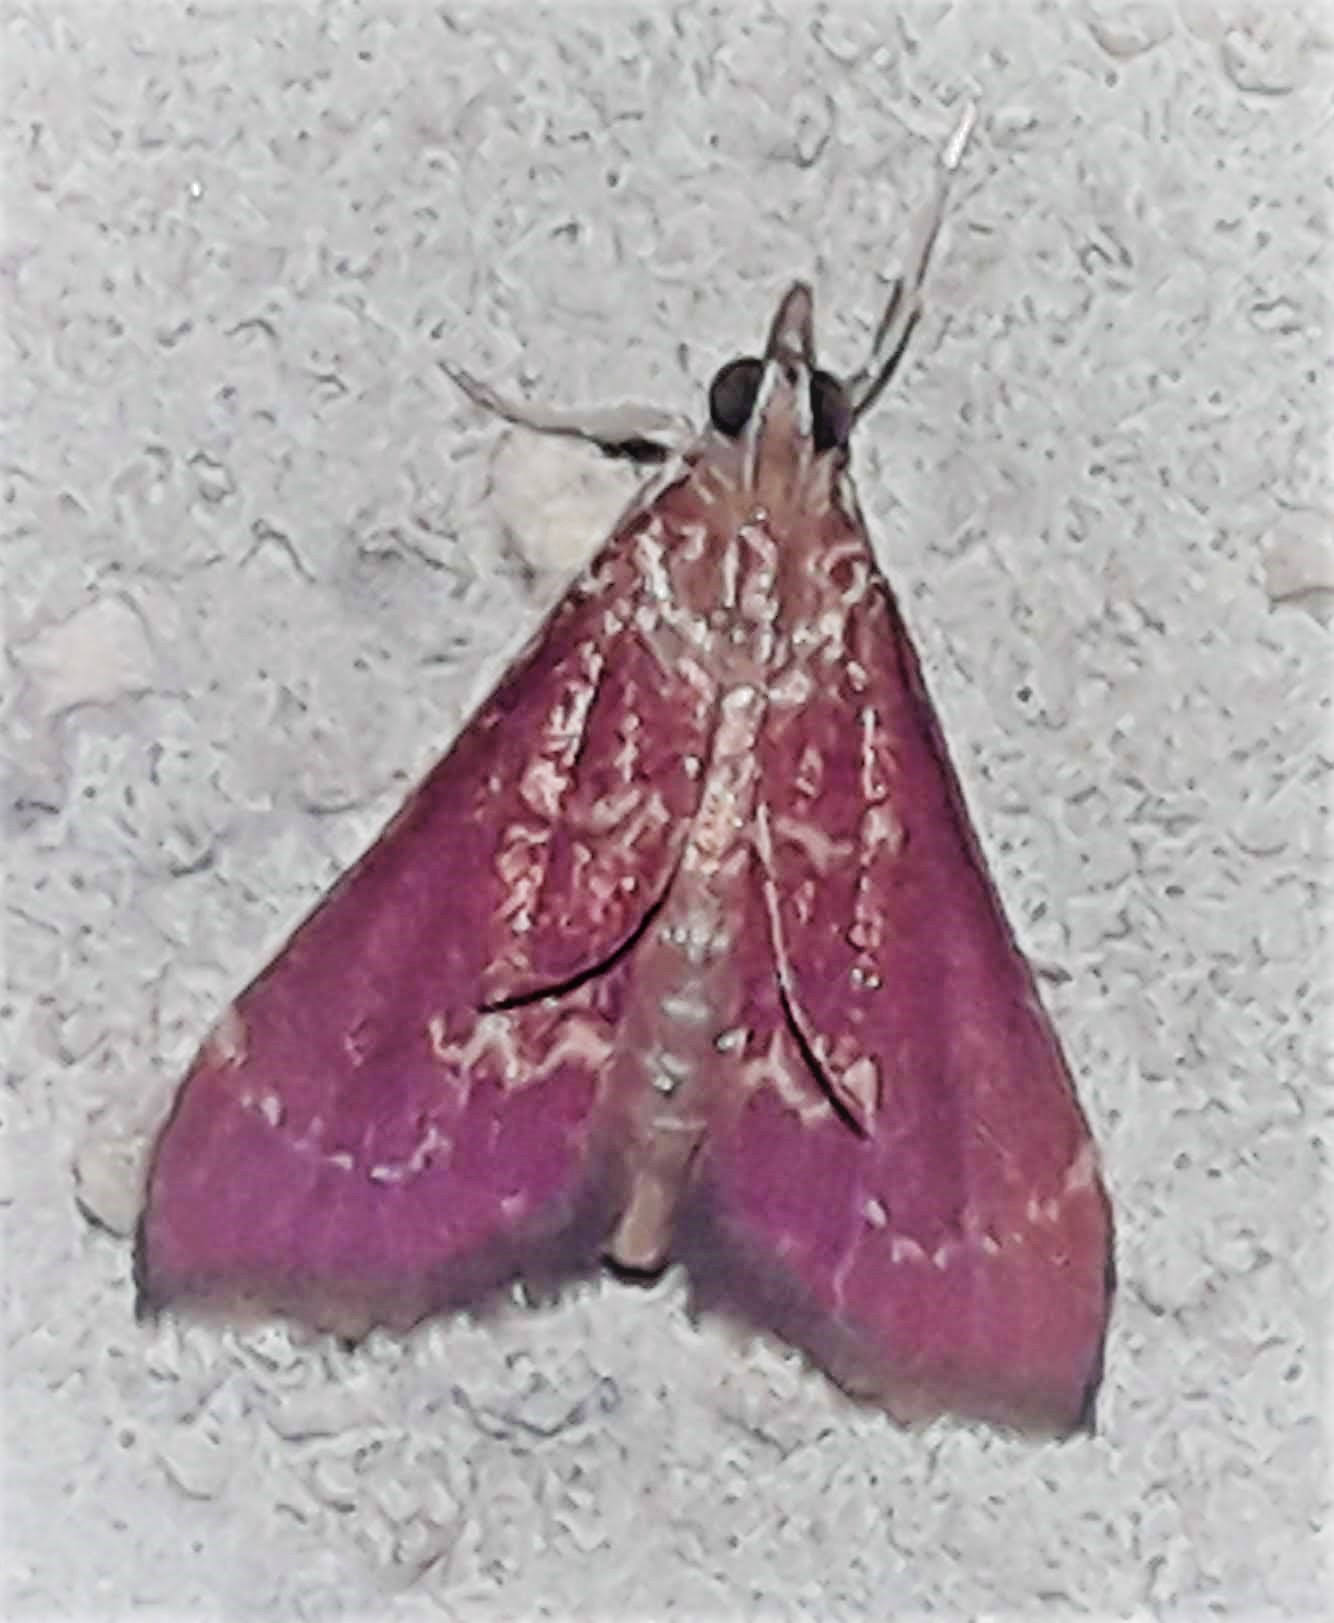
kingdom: Animalia
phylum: Arthropoda
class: Insecta
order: Lepidoptera
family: Crambidae
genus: Pyrausta
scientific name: Pyrausta signatalis
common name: Raspberry pyrausta moth
